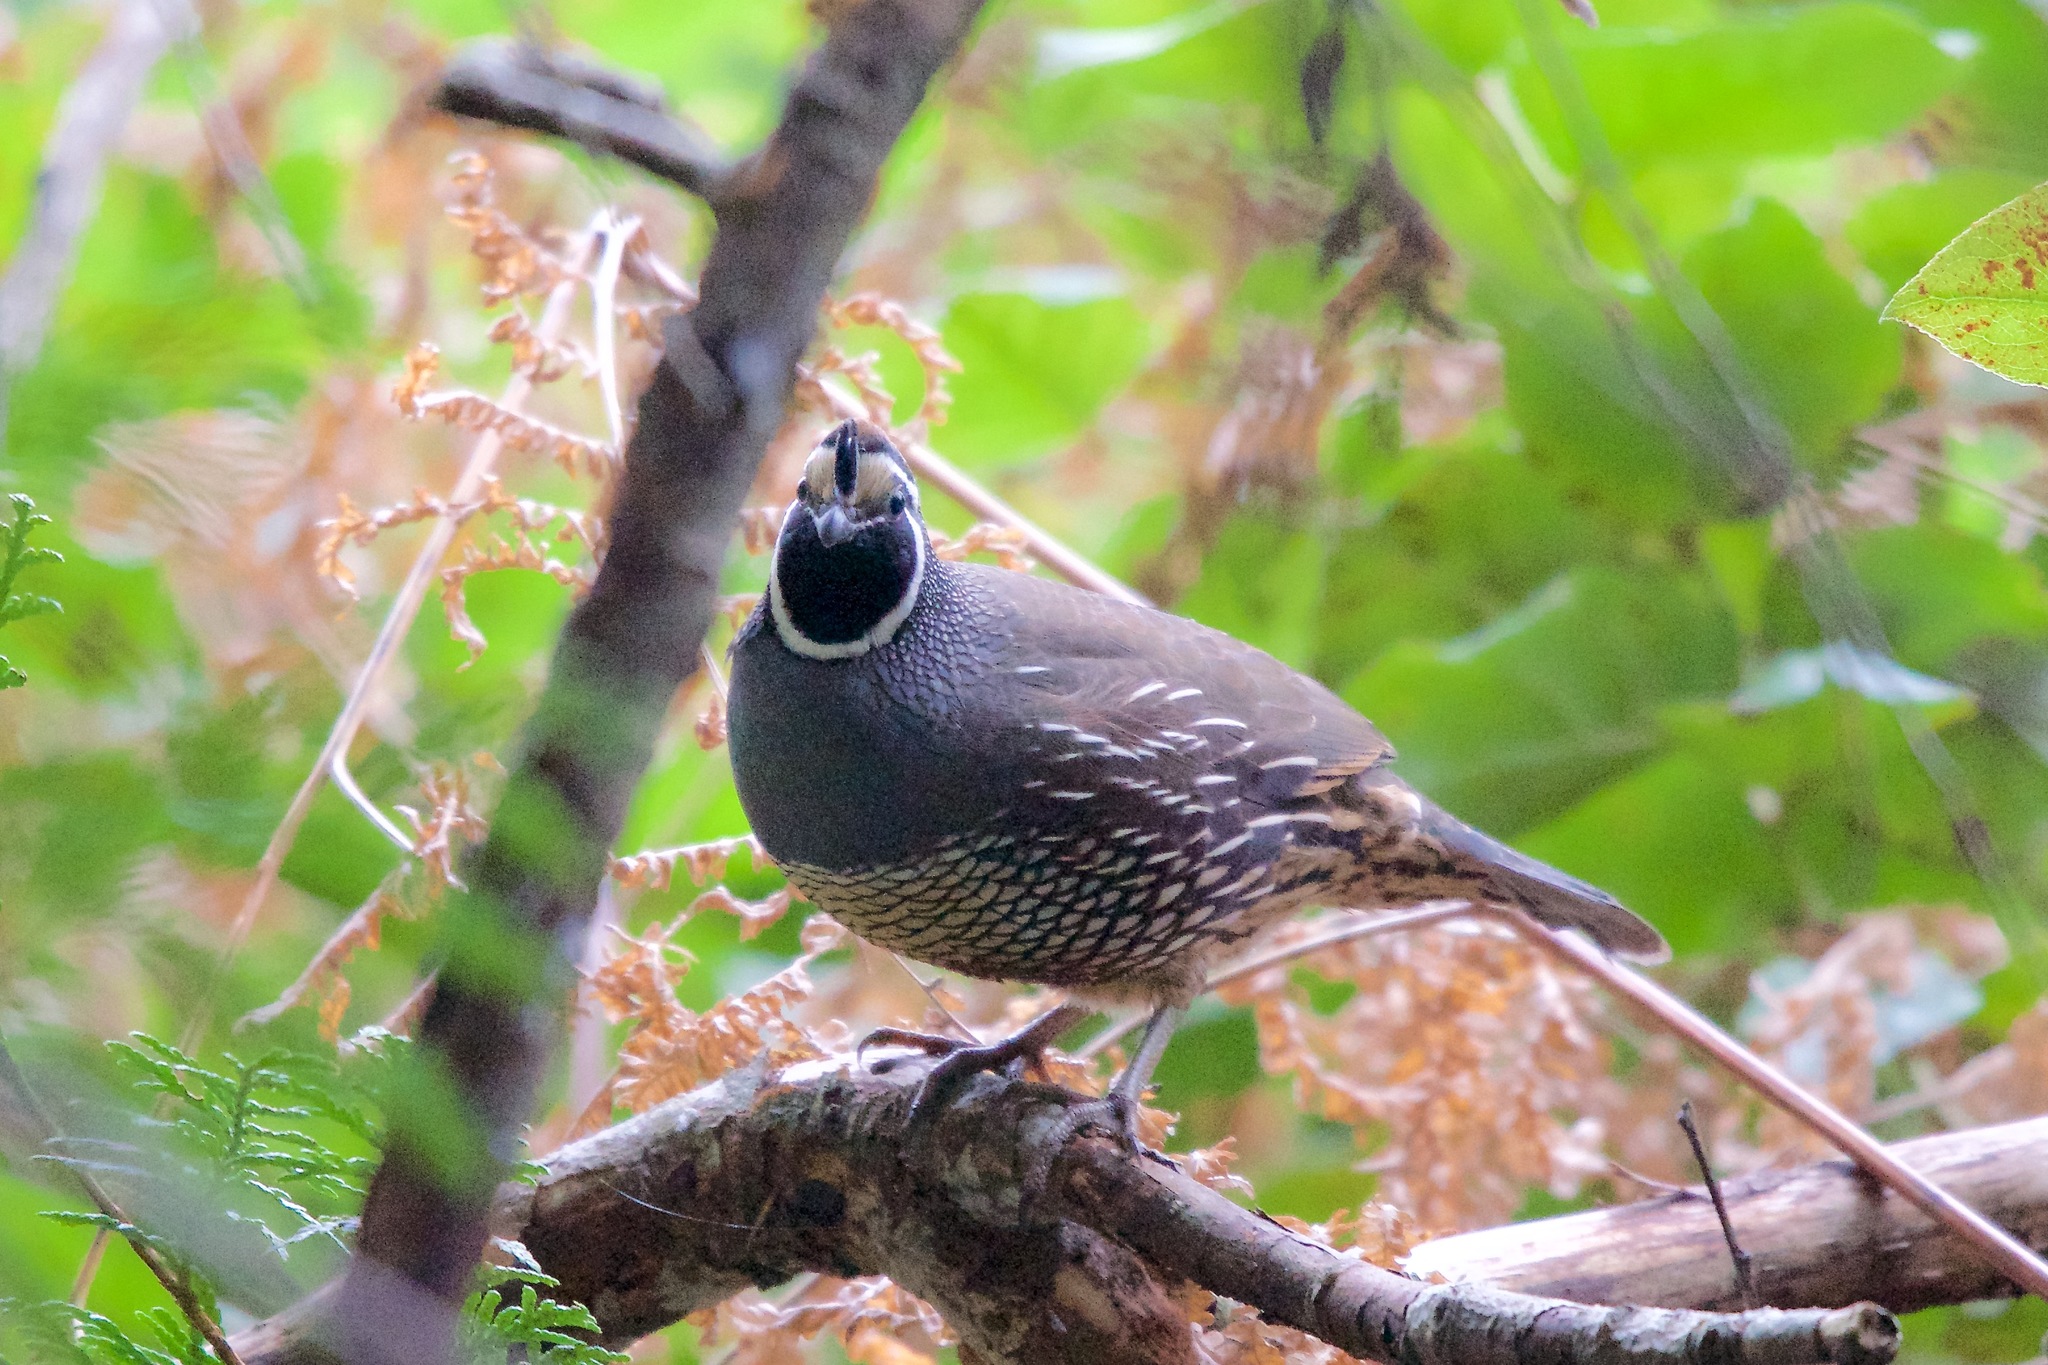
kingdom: Animalia
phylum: Chordata
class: Aves
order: Galliformes
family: Odontophoridae
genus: Callipepla
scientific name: Callipepla californica
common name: California quail
